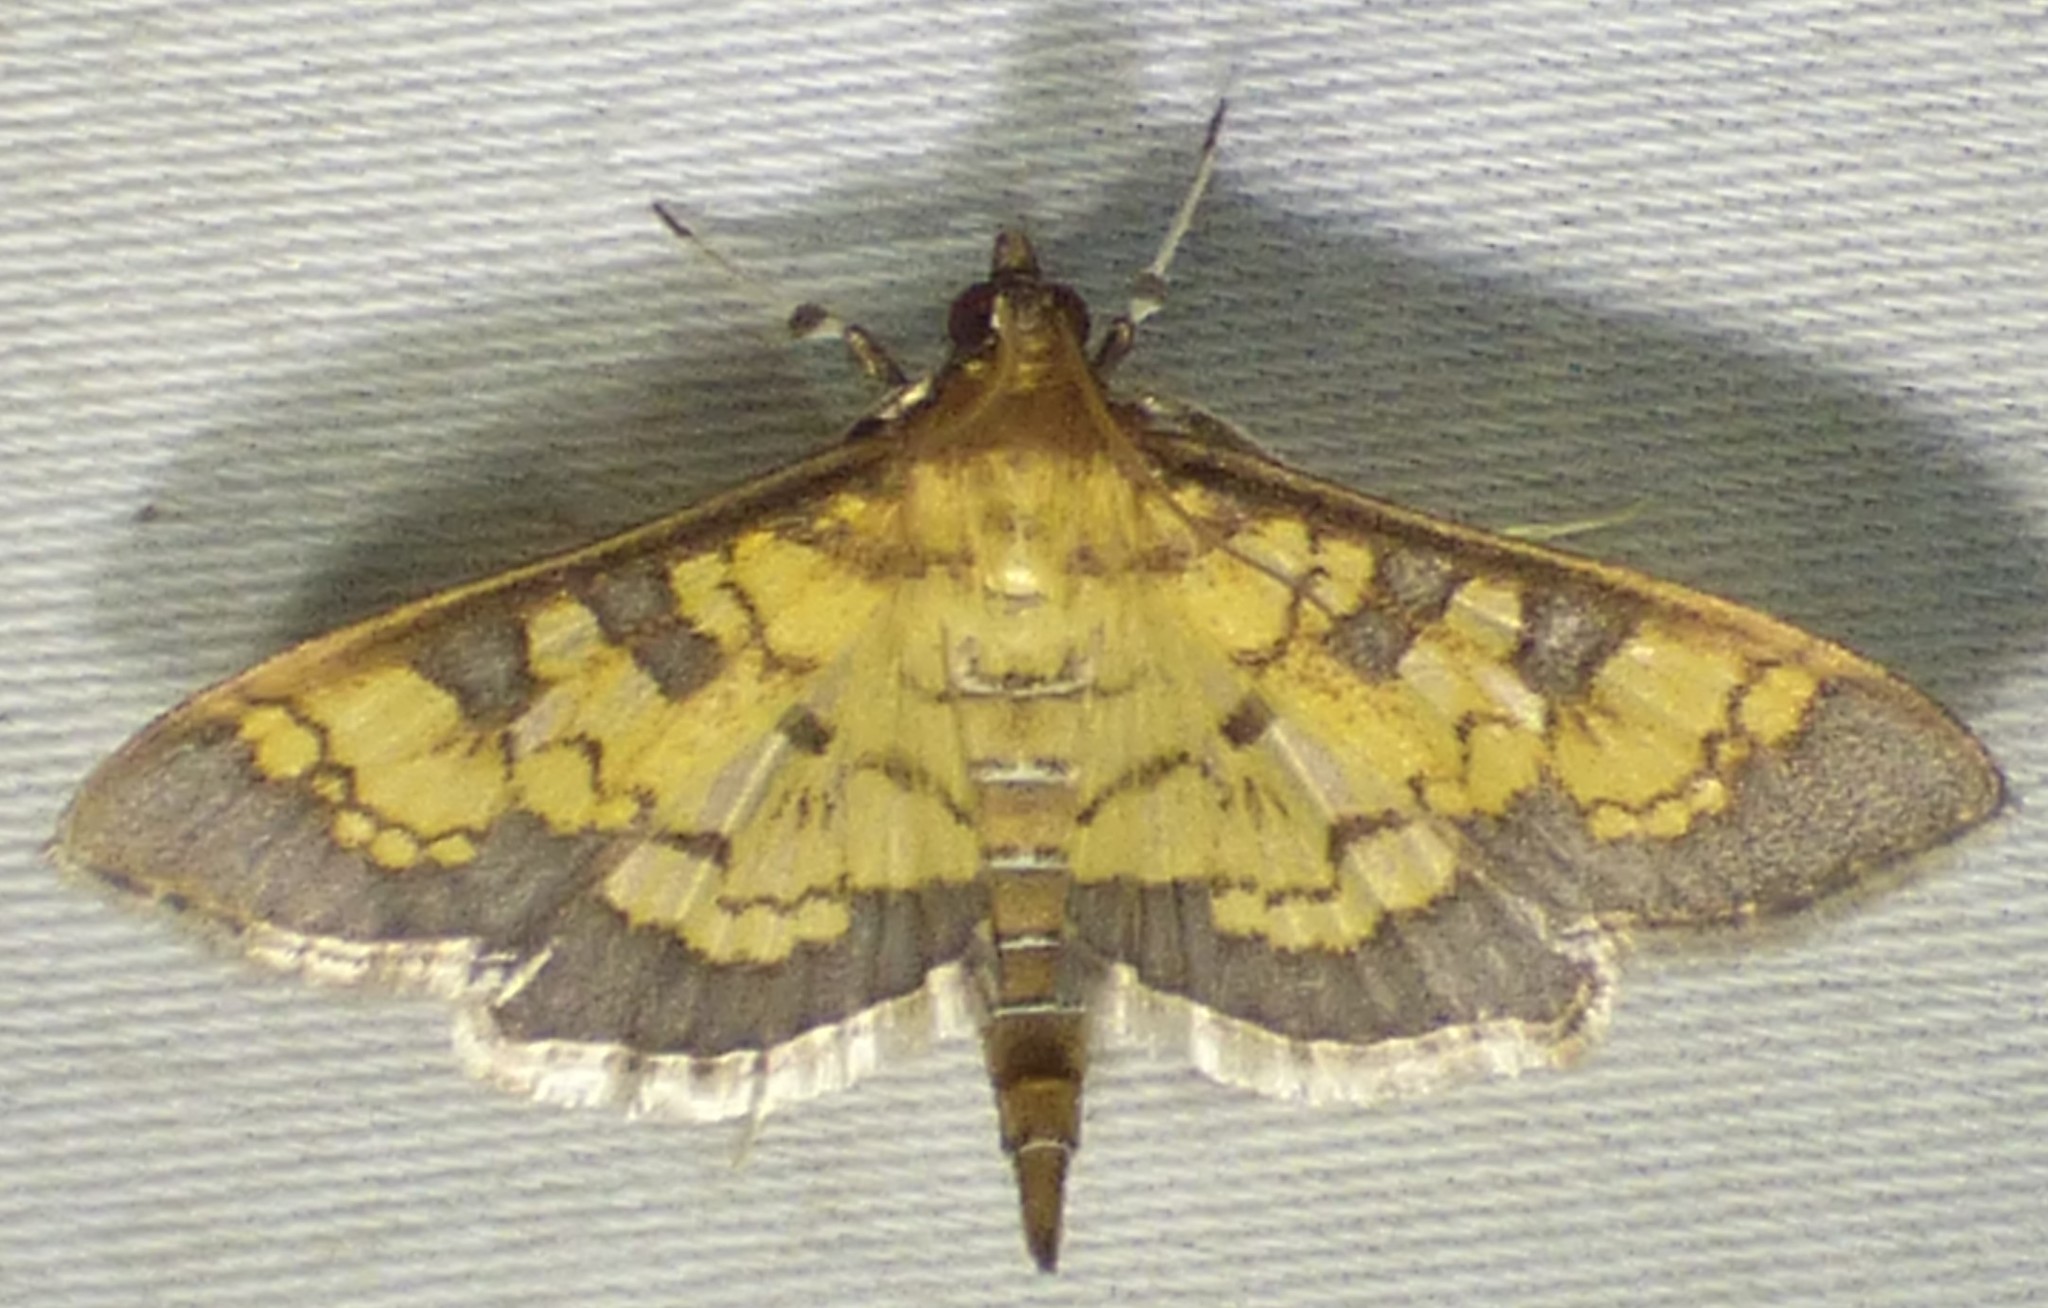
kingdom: Animalia
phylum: Arthropoda
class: Insecta
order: Lepidoptera
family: Crambidae
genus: Epipagis
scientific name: Epipagis adipaloides
